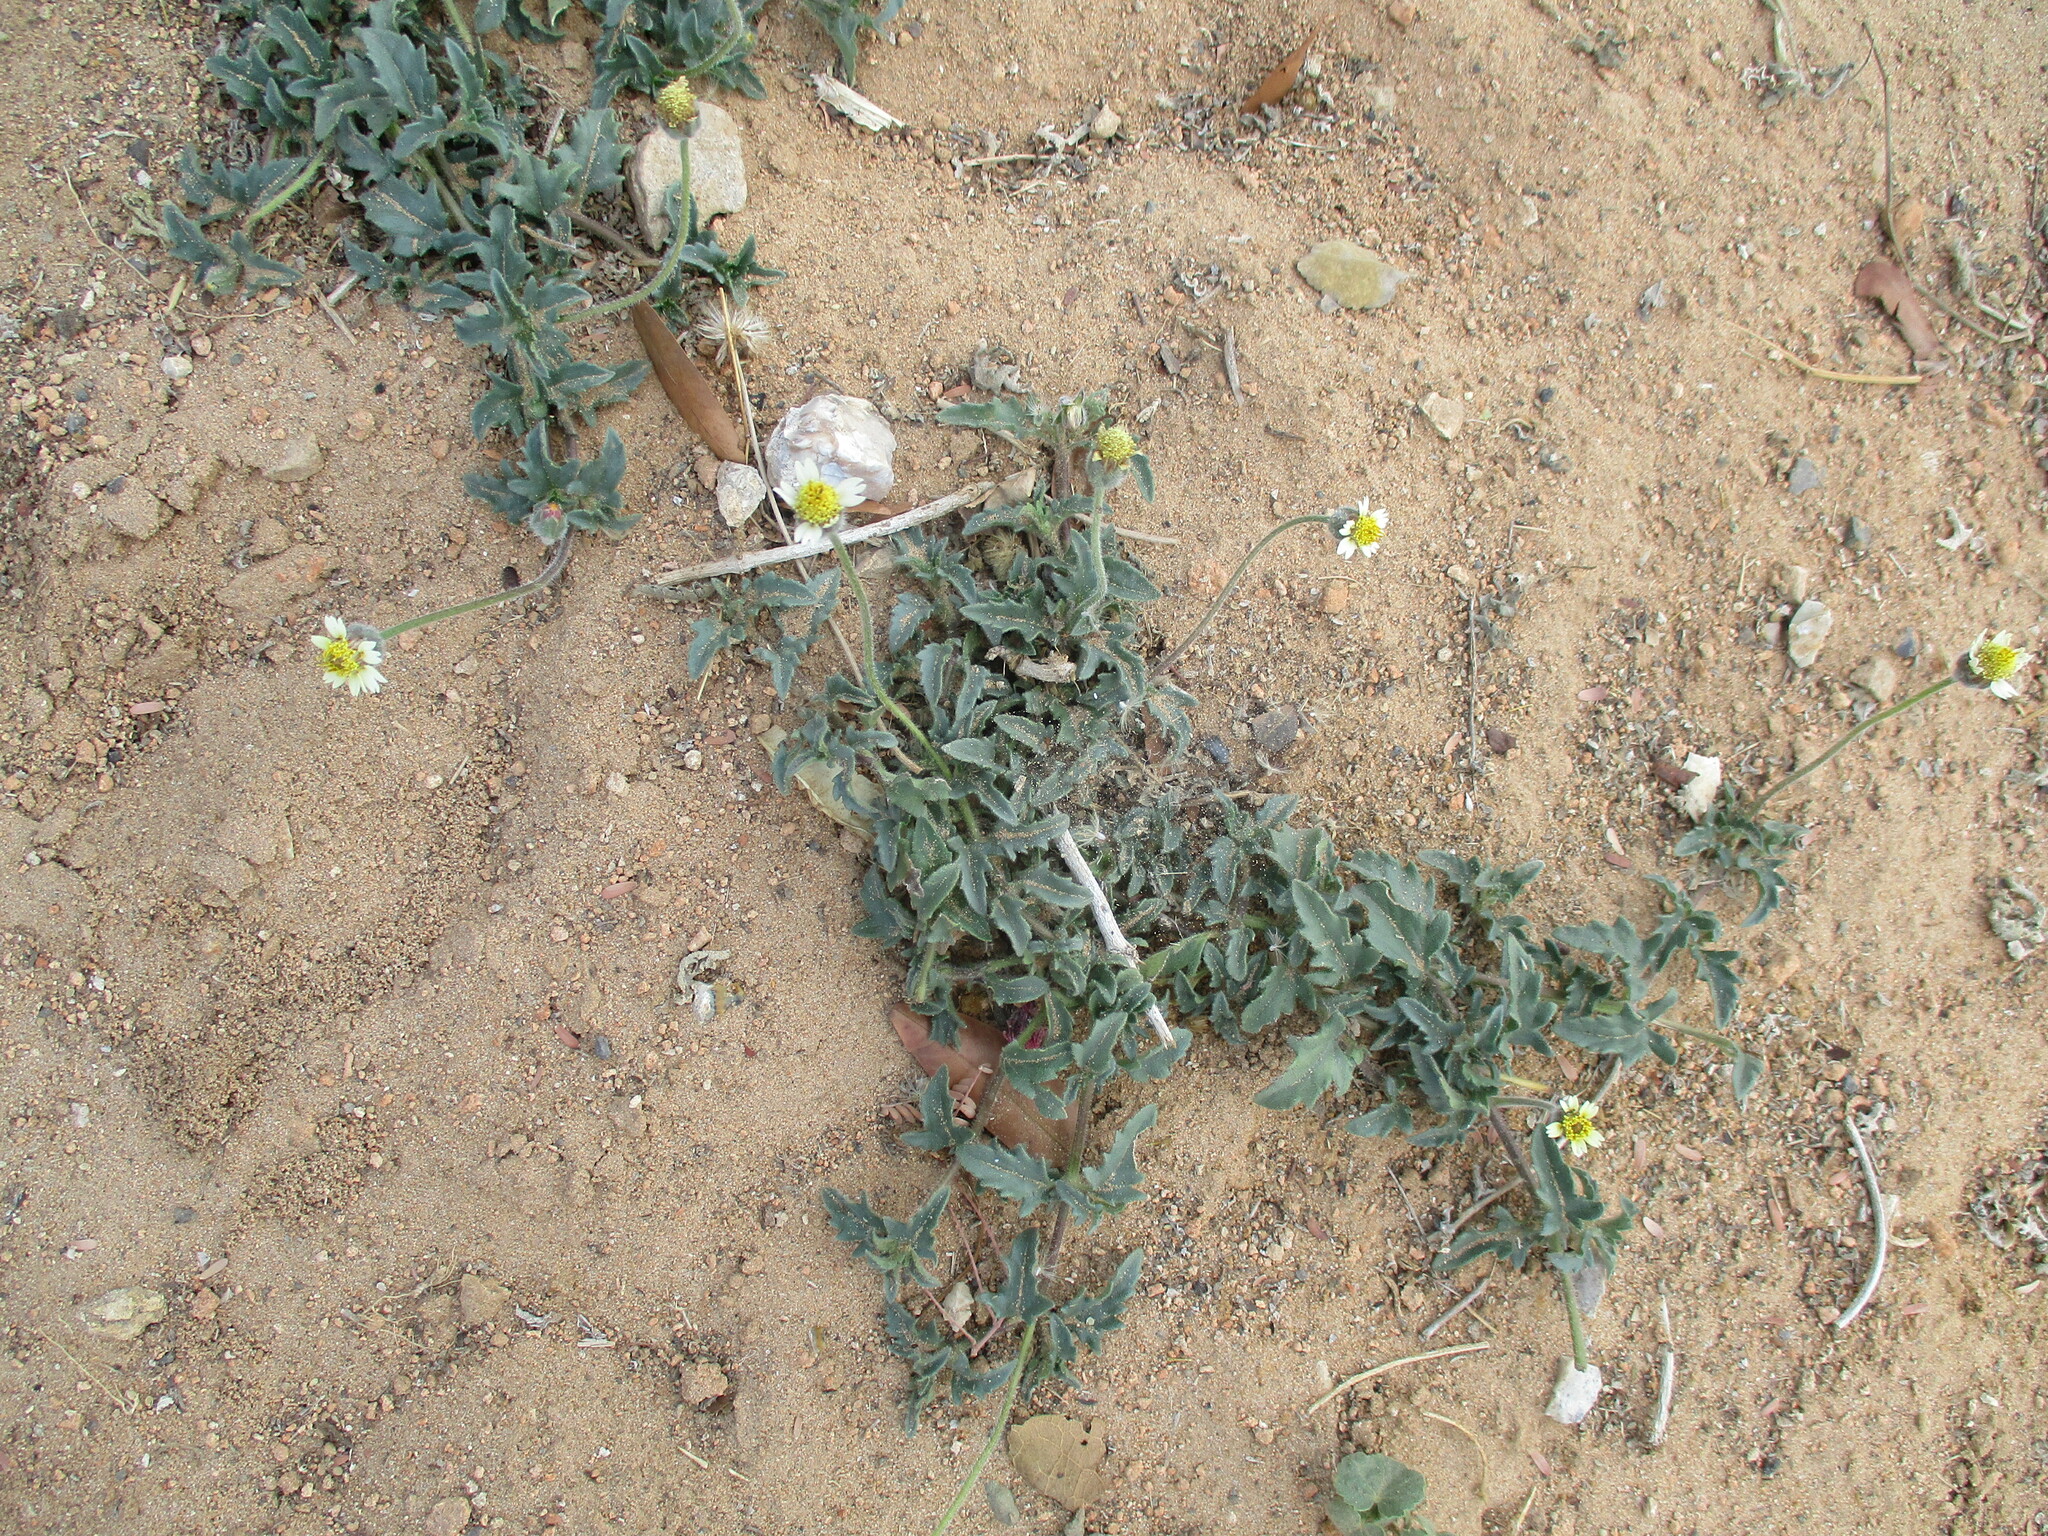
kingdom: Plantae
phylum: Tracheophyta
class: Magnoliopsida
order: Asterales
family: Asteraceae
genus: Tridax
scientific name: Tridax procumbens
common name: Coatbuttons
